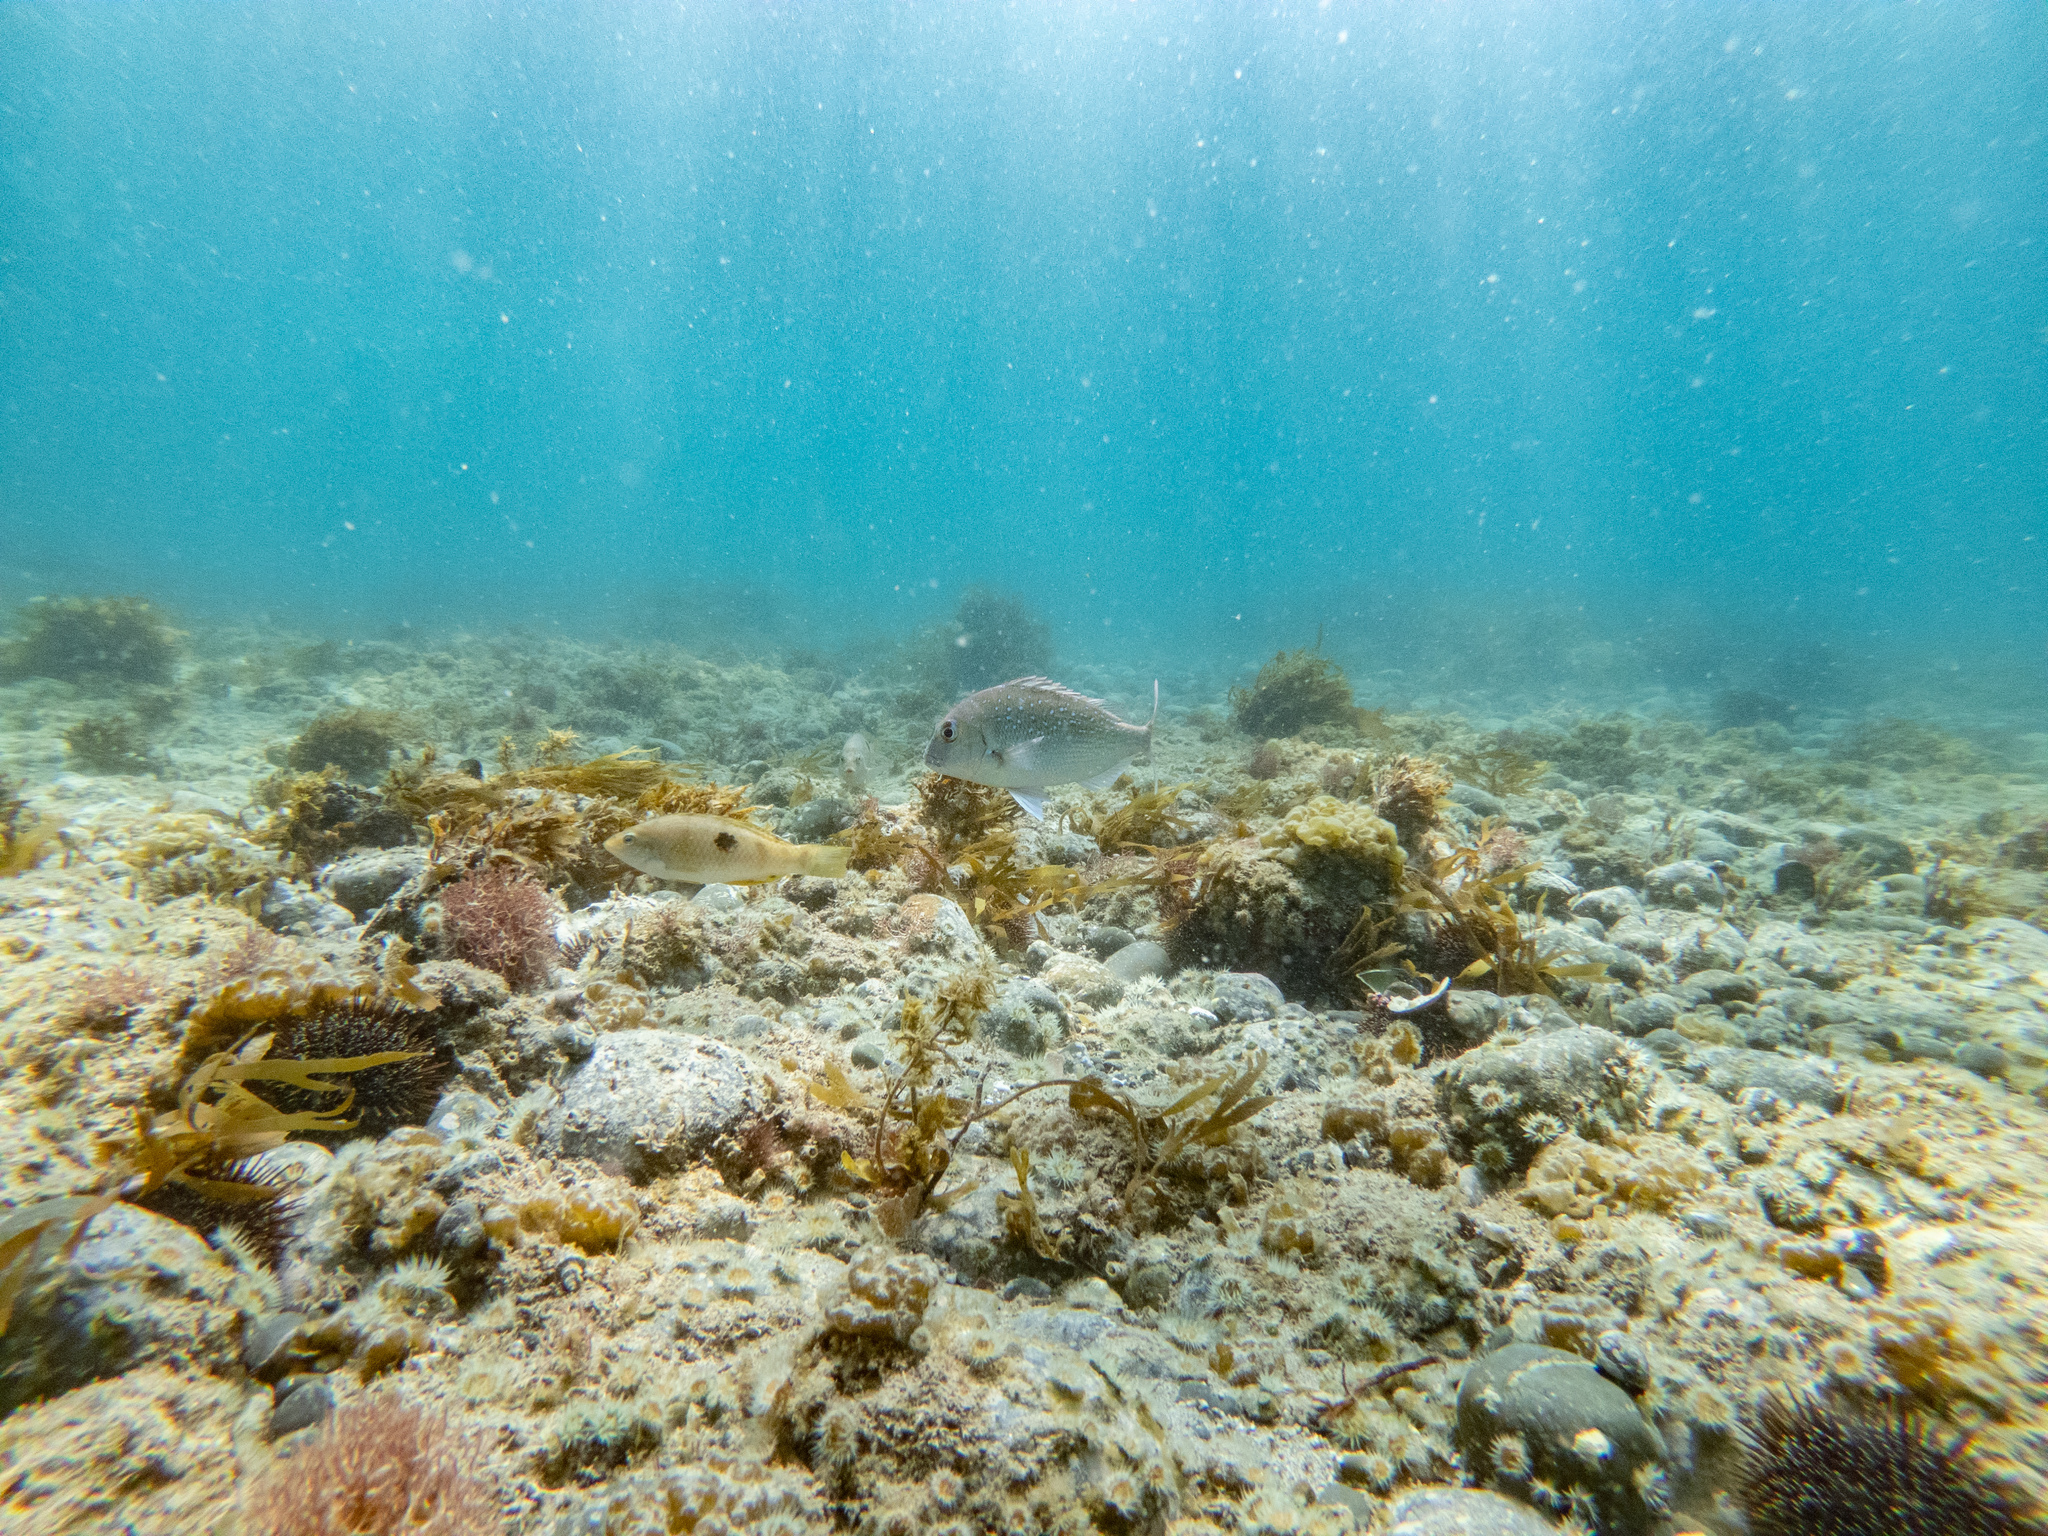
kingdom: Animalia
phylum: Chordata
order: Perciformes
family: Sparidae
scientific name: Sparidae
